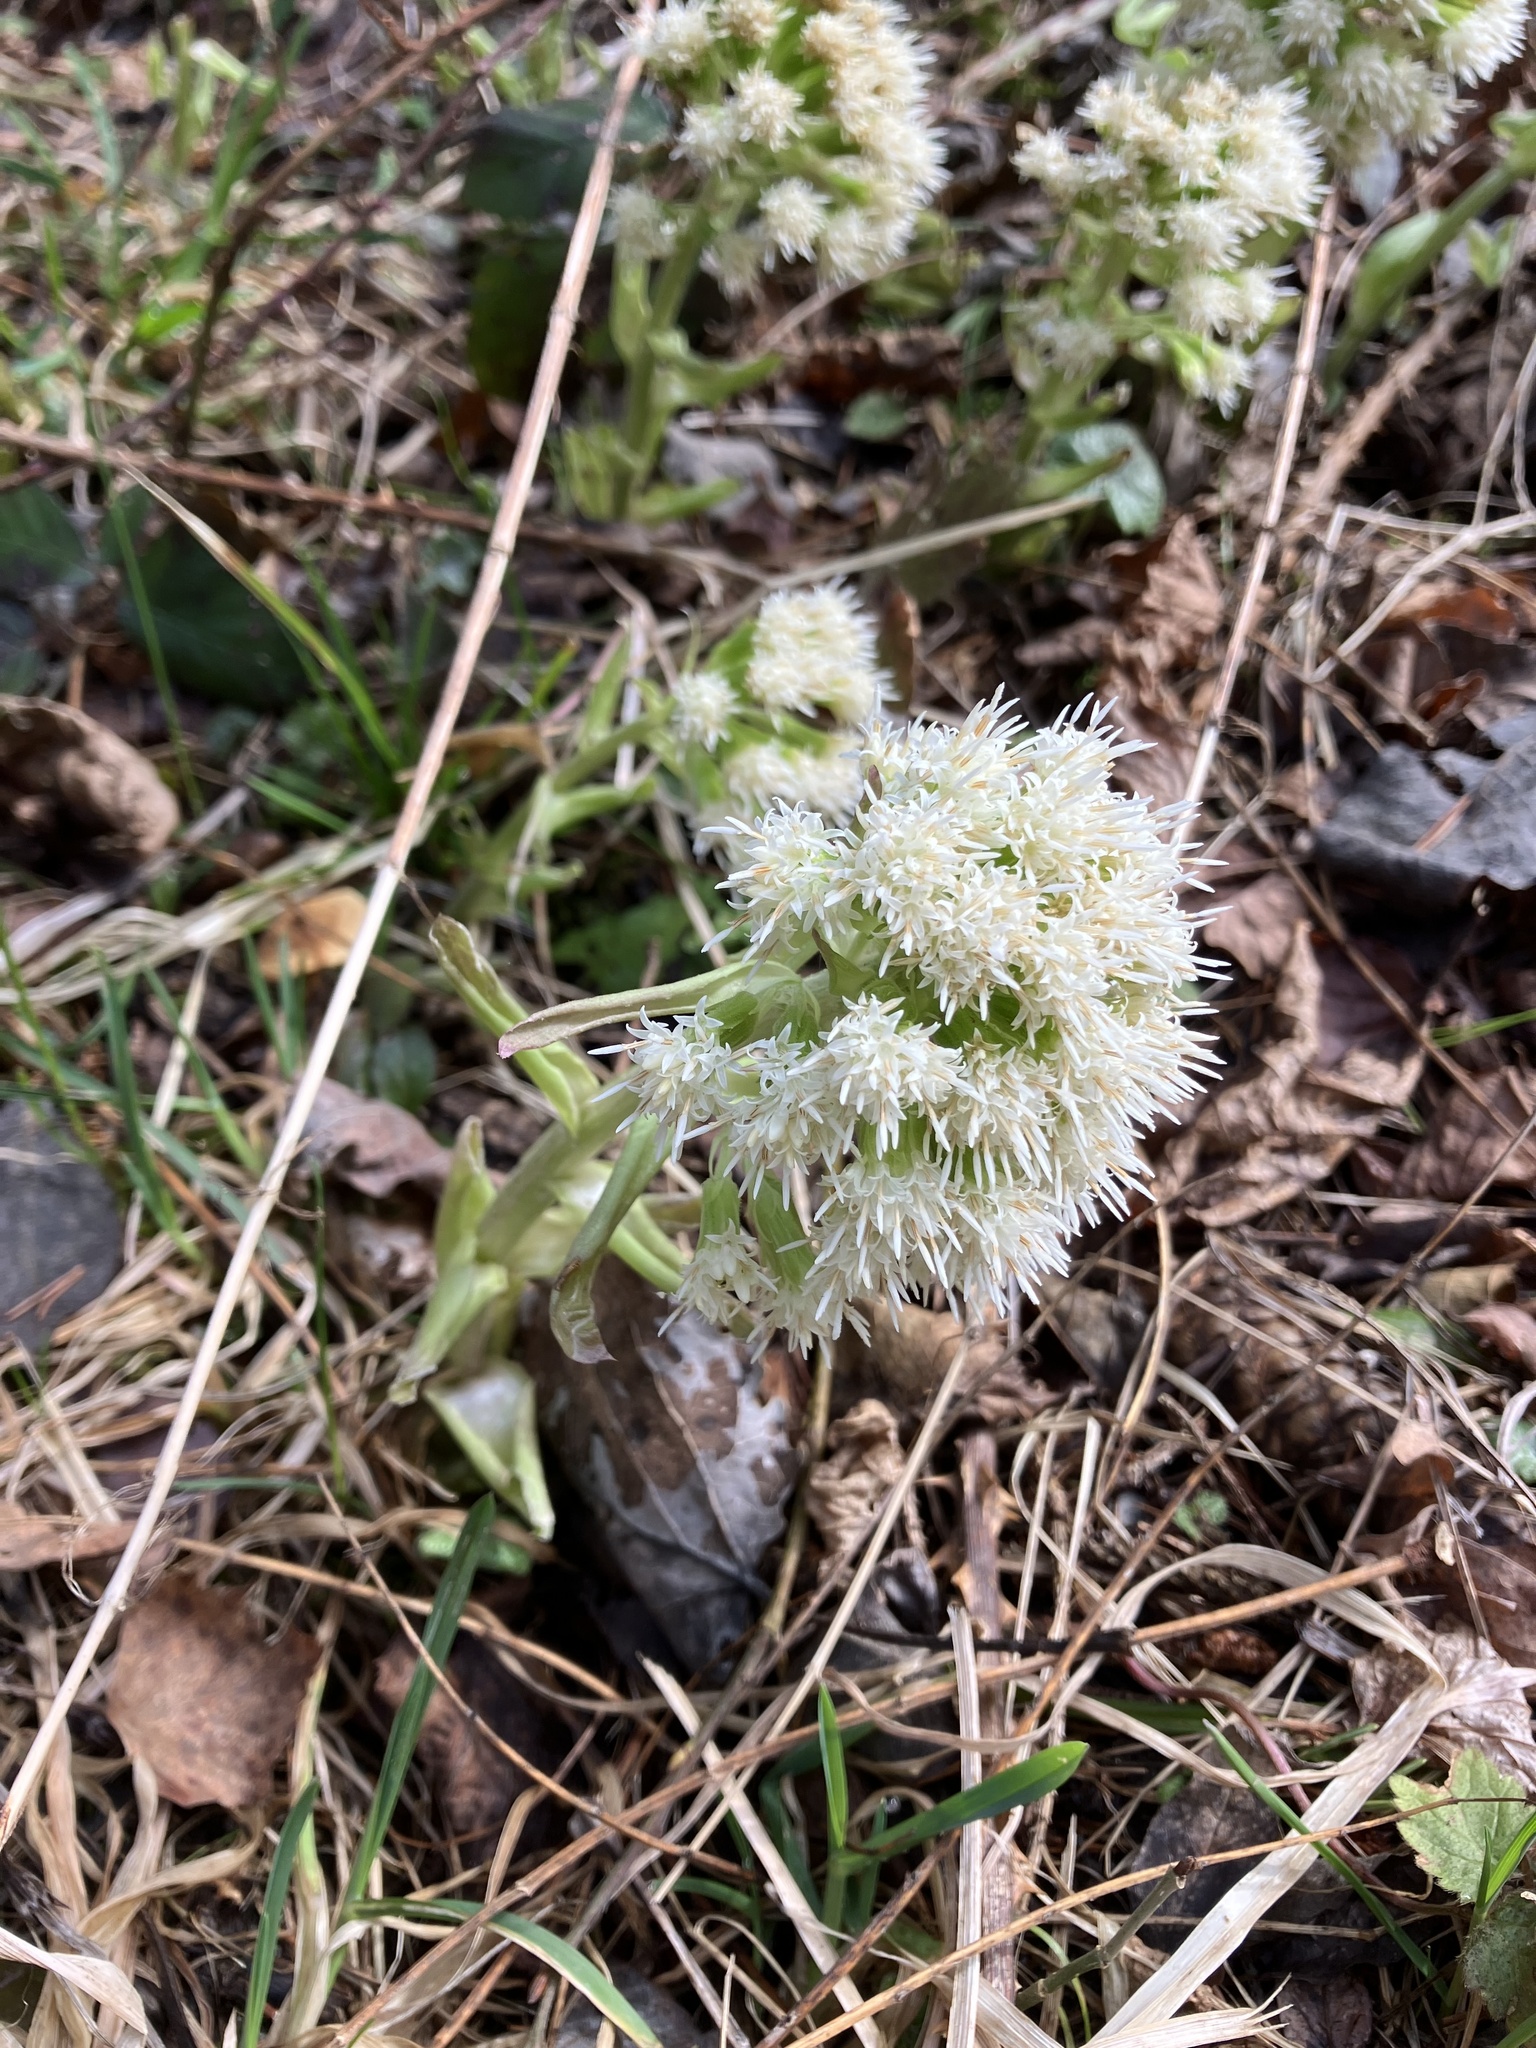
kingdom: Plantae
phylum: Tracheophyta
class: Magnoliopsida
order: Asterales
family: Asteraceae
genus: Petasites
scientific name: Petasites albus
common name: White butterbur
